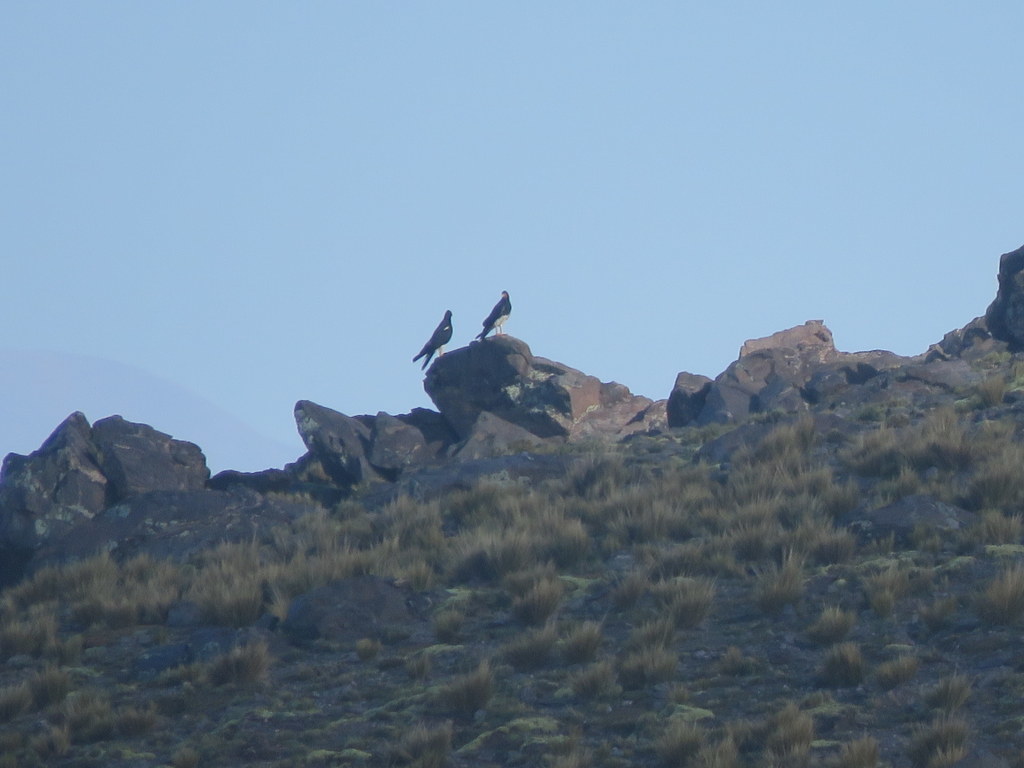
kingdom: Animalia
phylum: Chordata
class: Aves
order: Falconiformes
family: Falconidae
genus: Daptrius
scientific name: Daptrius
